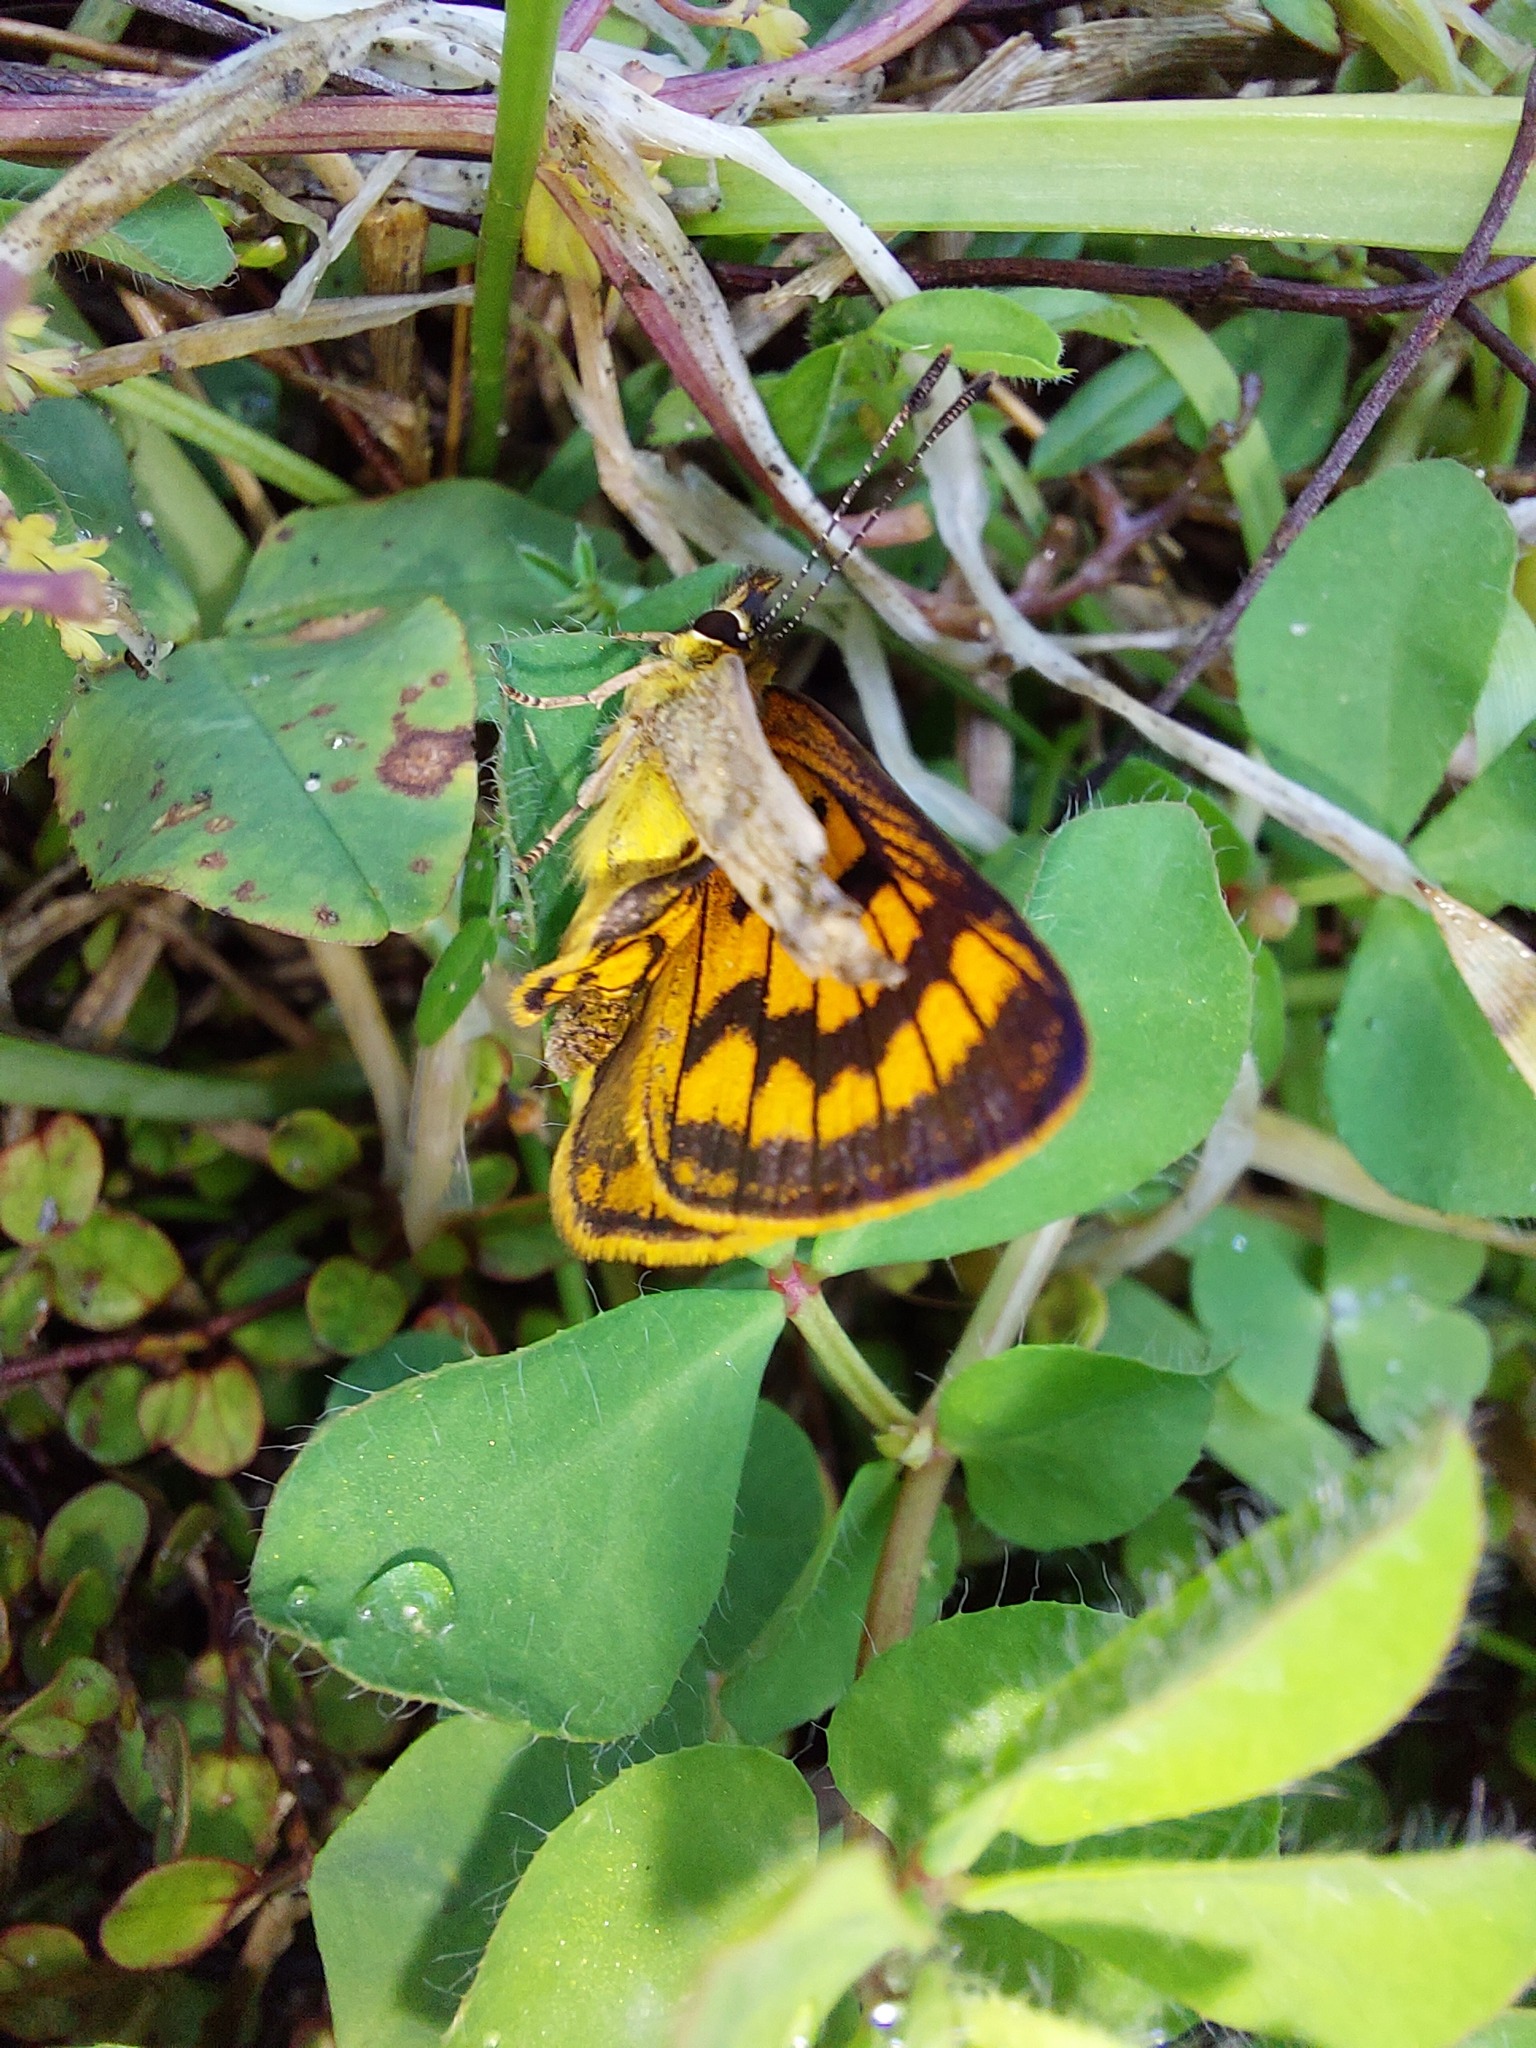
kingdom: Animalia
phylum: Arthropoda
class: Insecta
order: Lepidoptera
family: Lycaenidae
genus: Lycaena
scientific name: Lycaena salustius
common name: North island coastal copper
